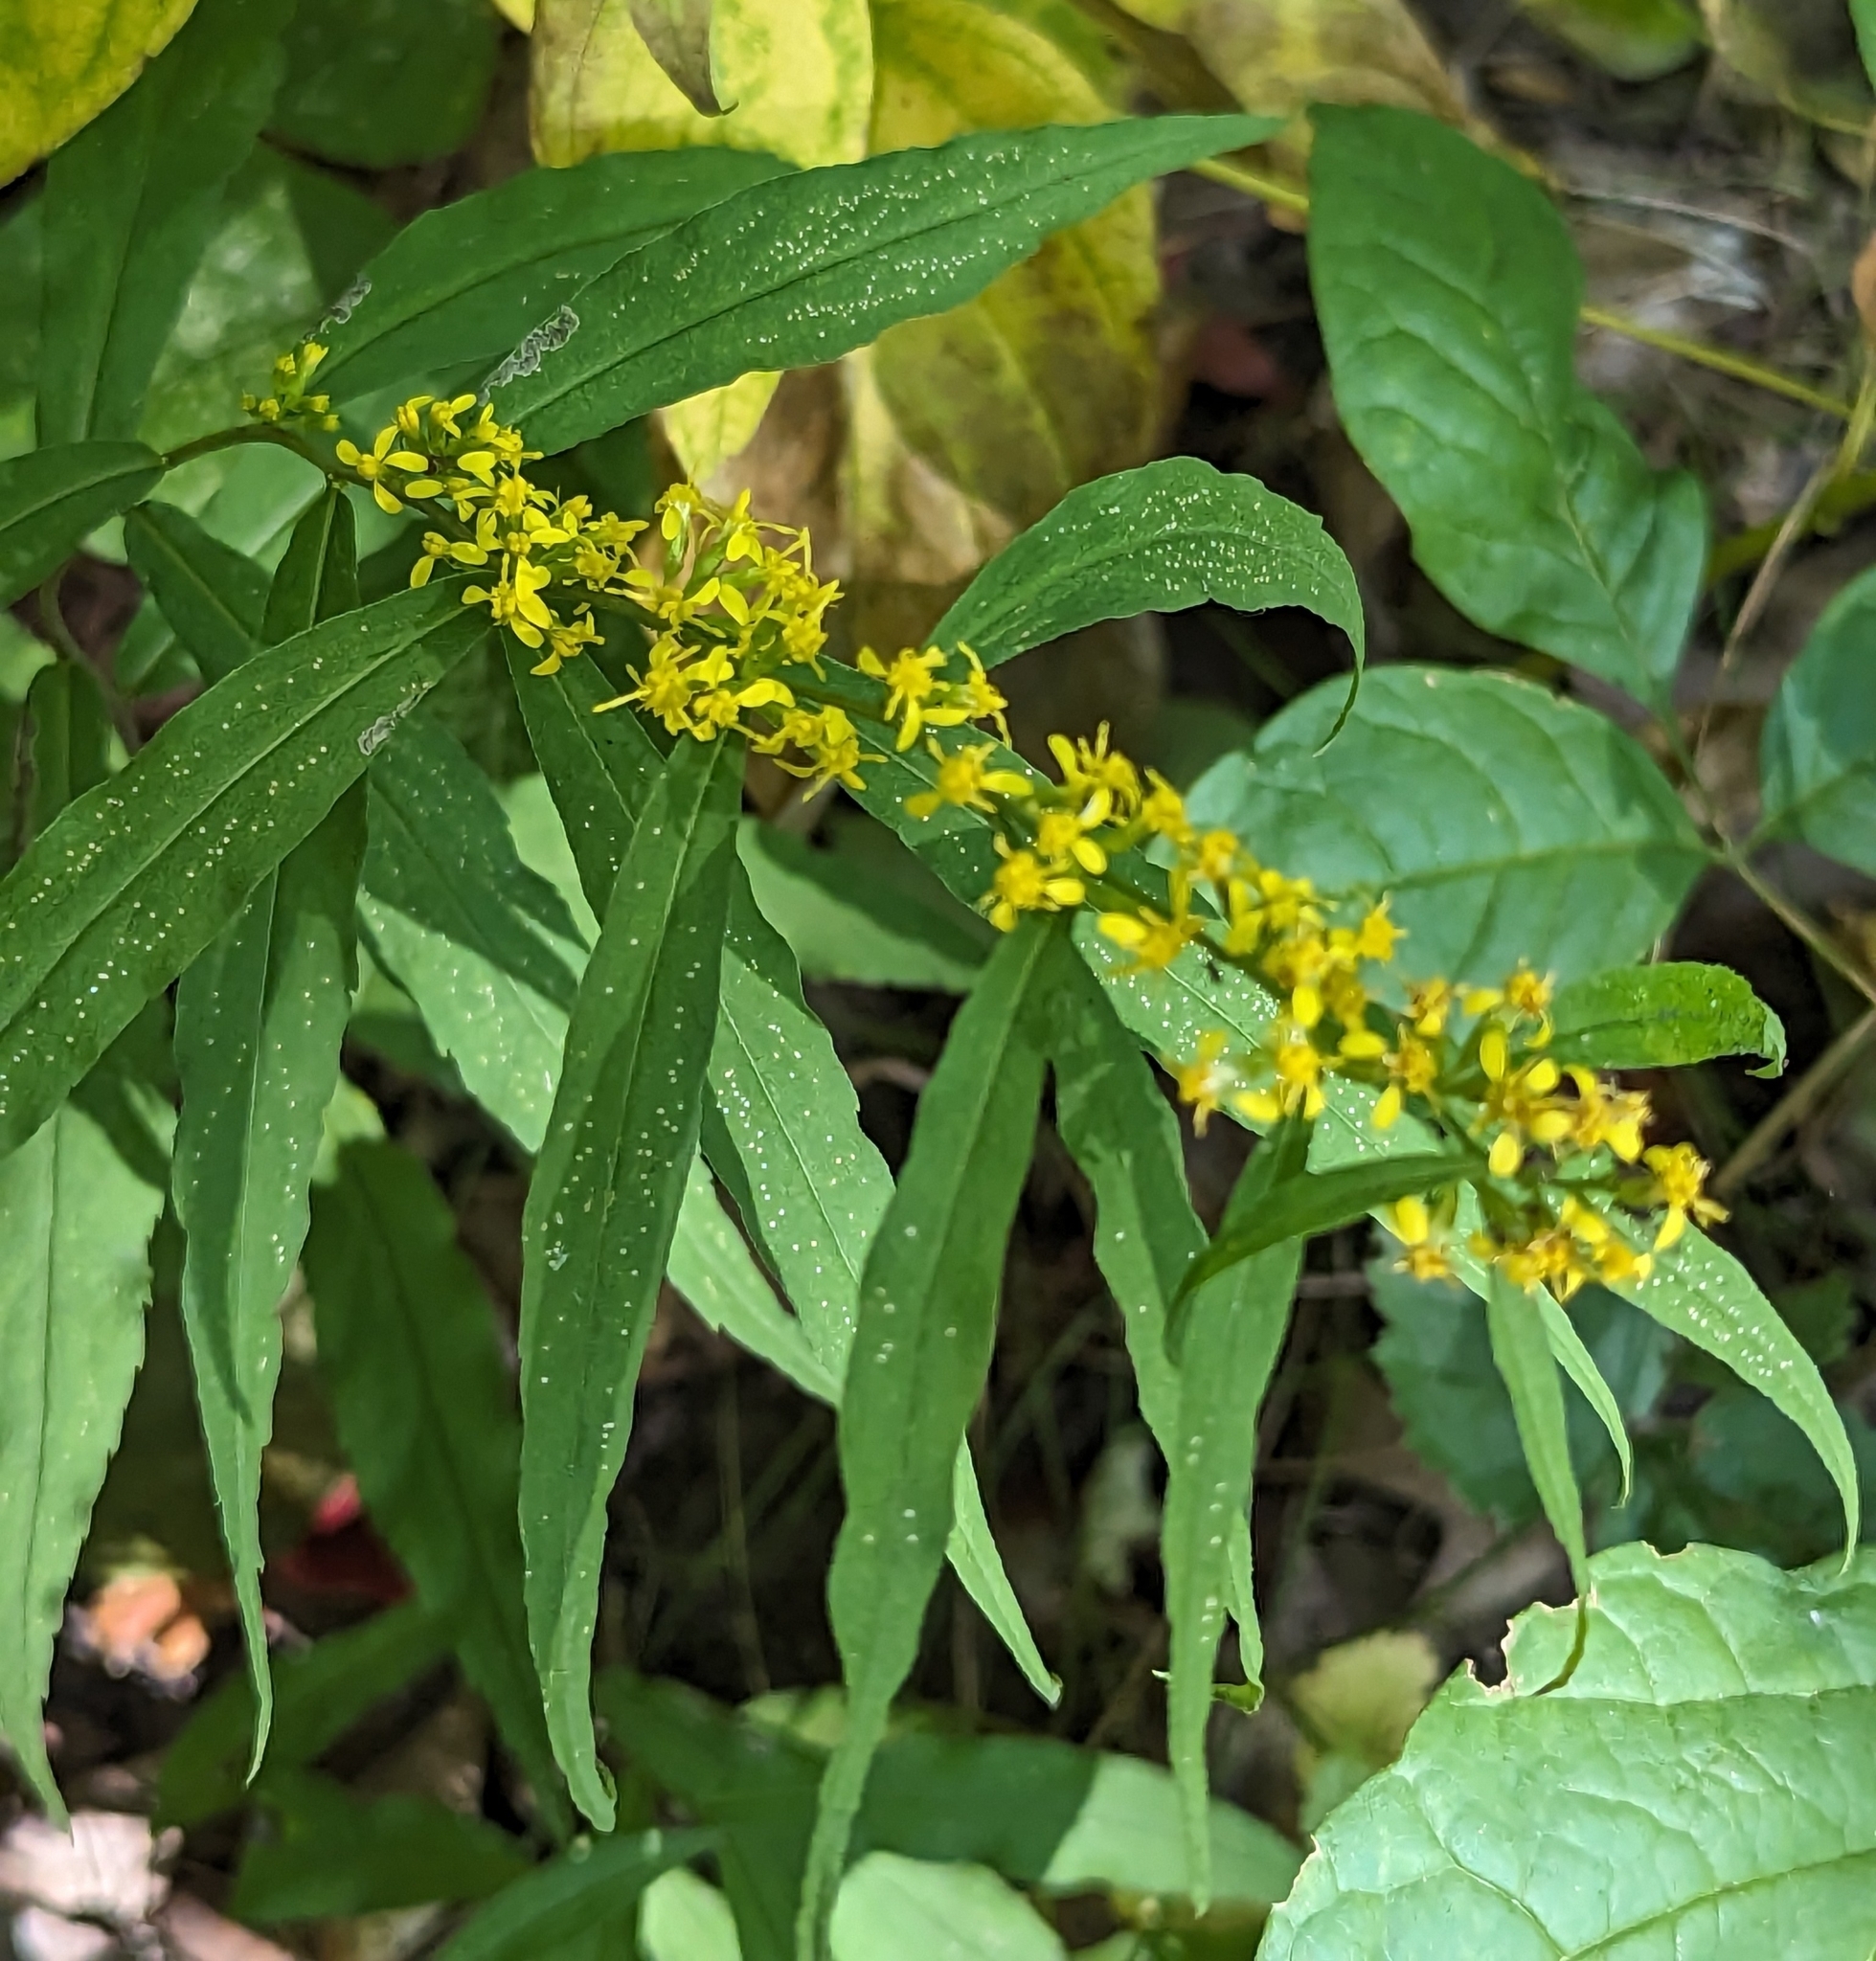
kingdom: Plantae
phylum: Tracheophyta
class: Magnoliopsida
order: Asterales
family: Asteraceae
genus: Solidago
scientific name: Solidago caesia
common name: Woodland goldenrod
